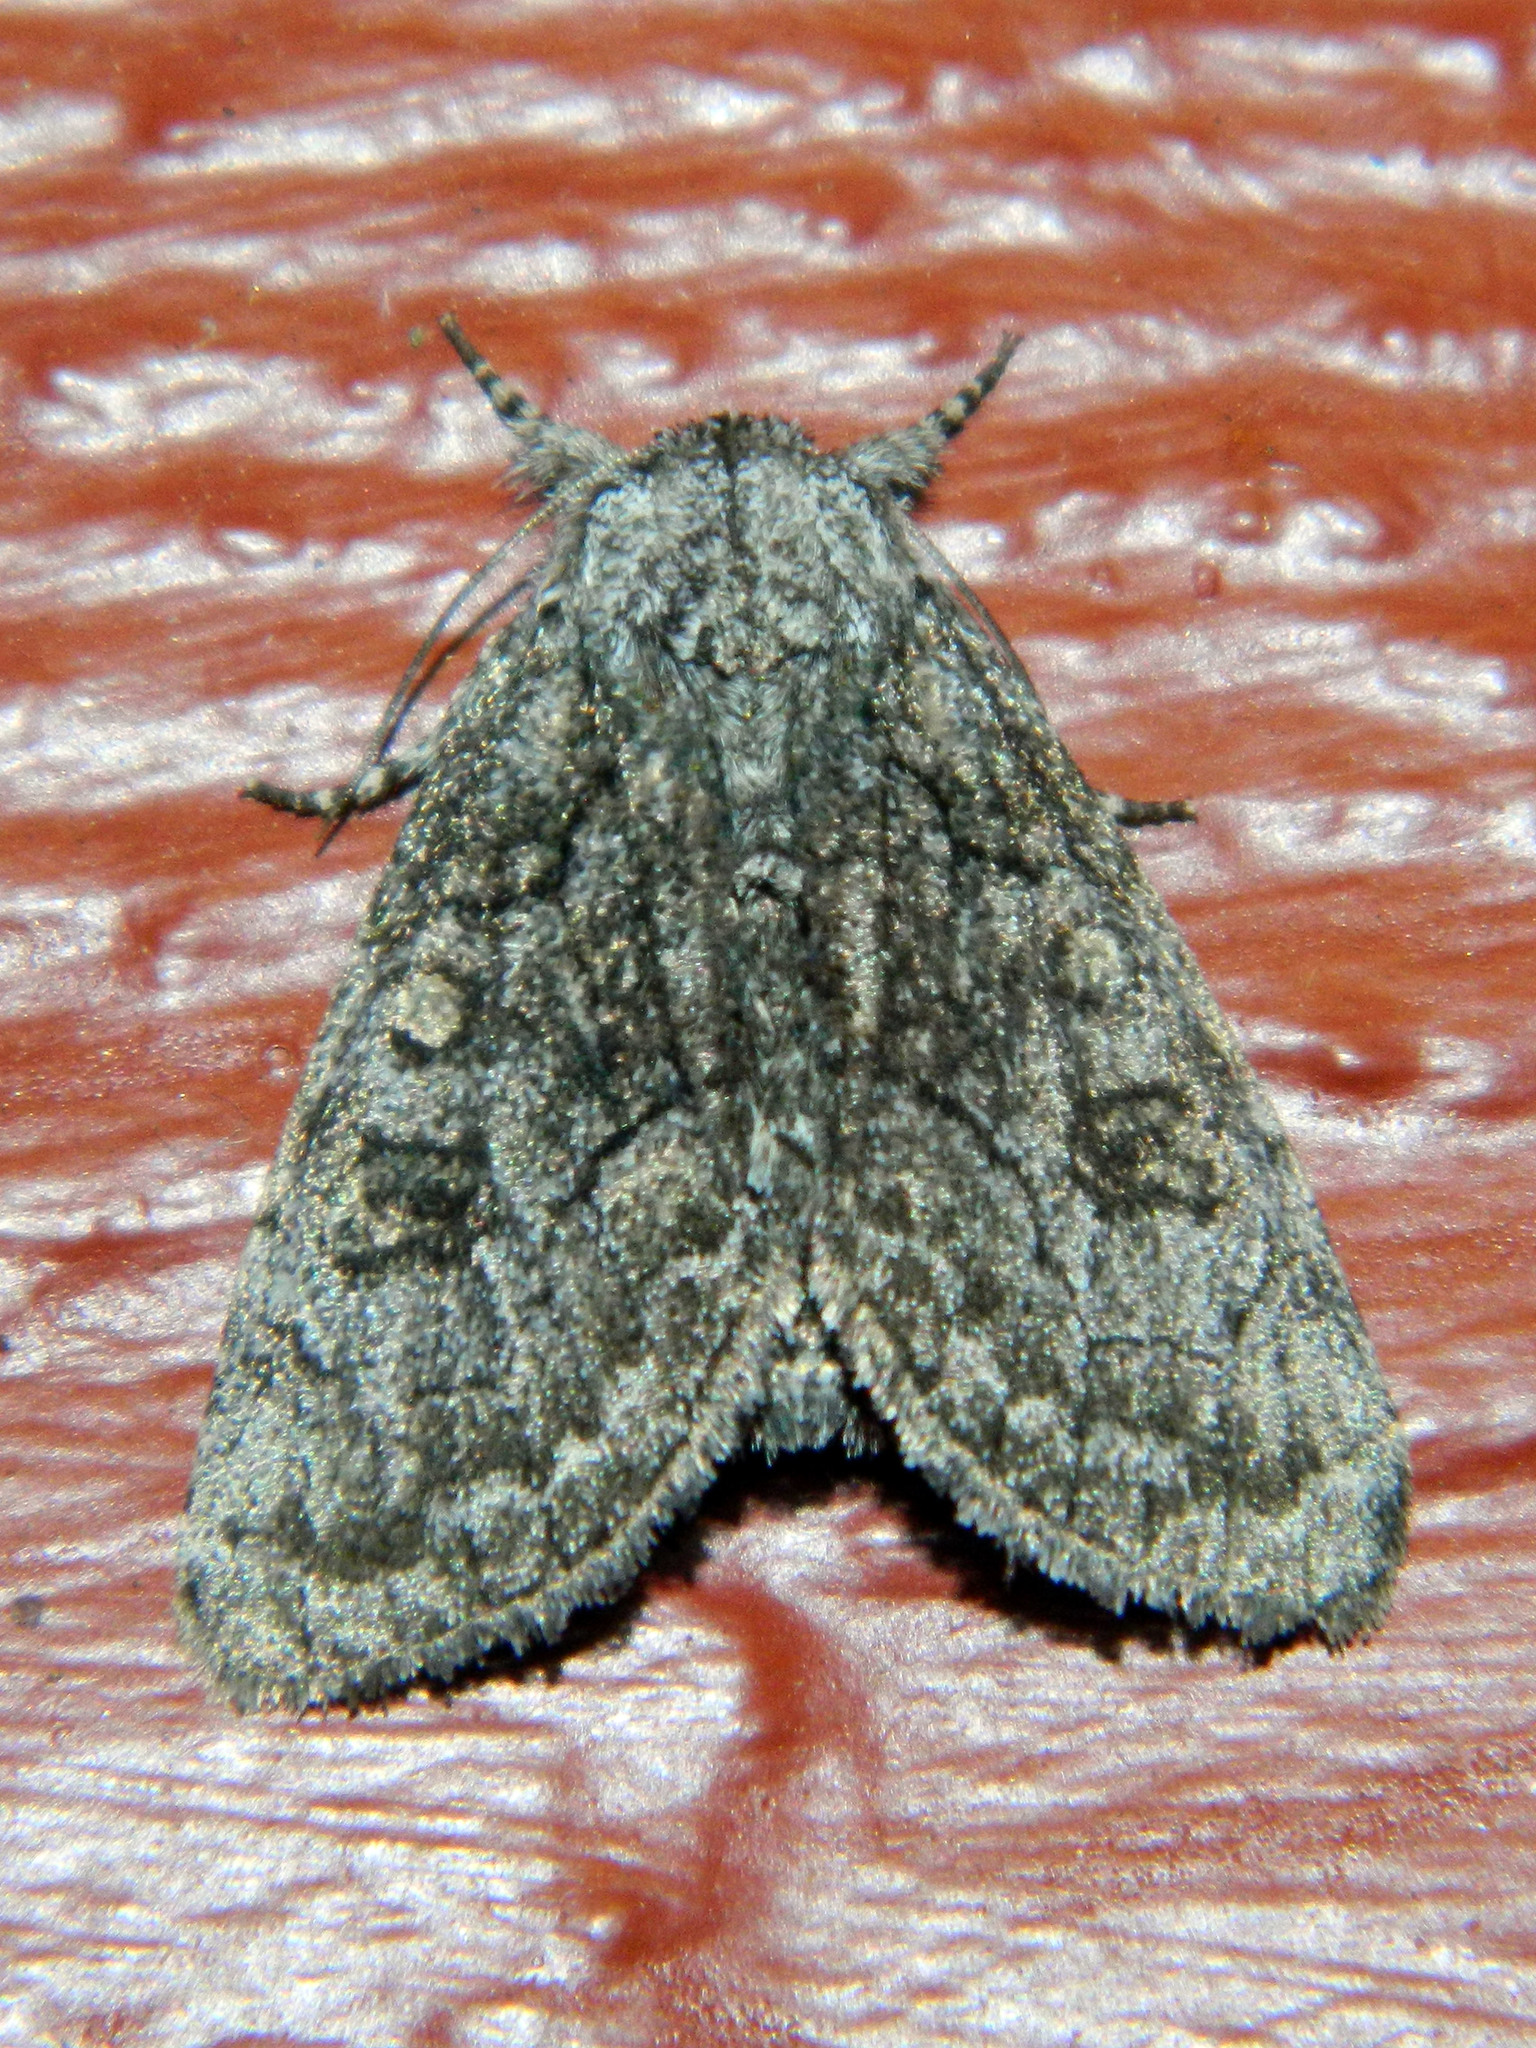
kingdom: Animalia
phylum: Arthropoda
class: Insecta
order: Lepidoptera
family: Noctuidae
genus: Raphia
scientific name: Raphia frater
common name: Brother
